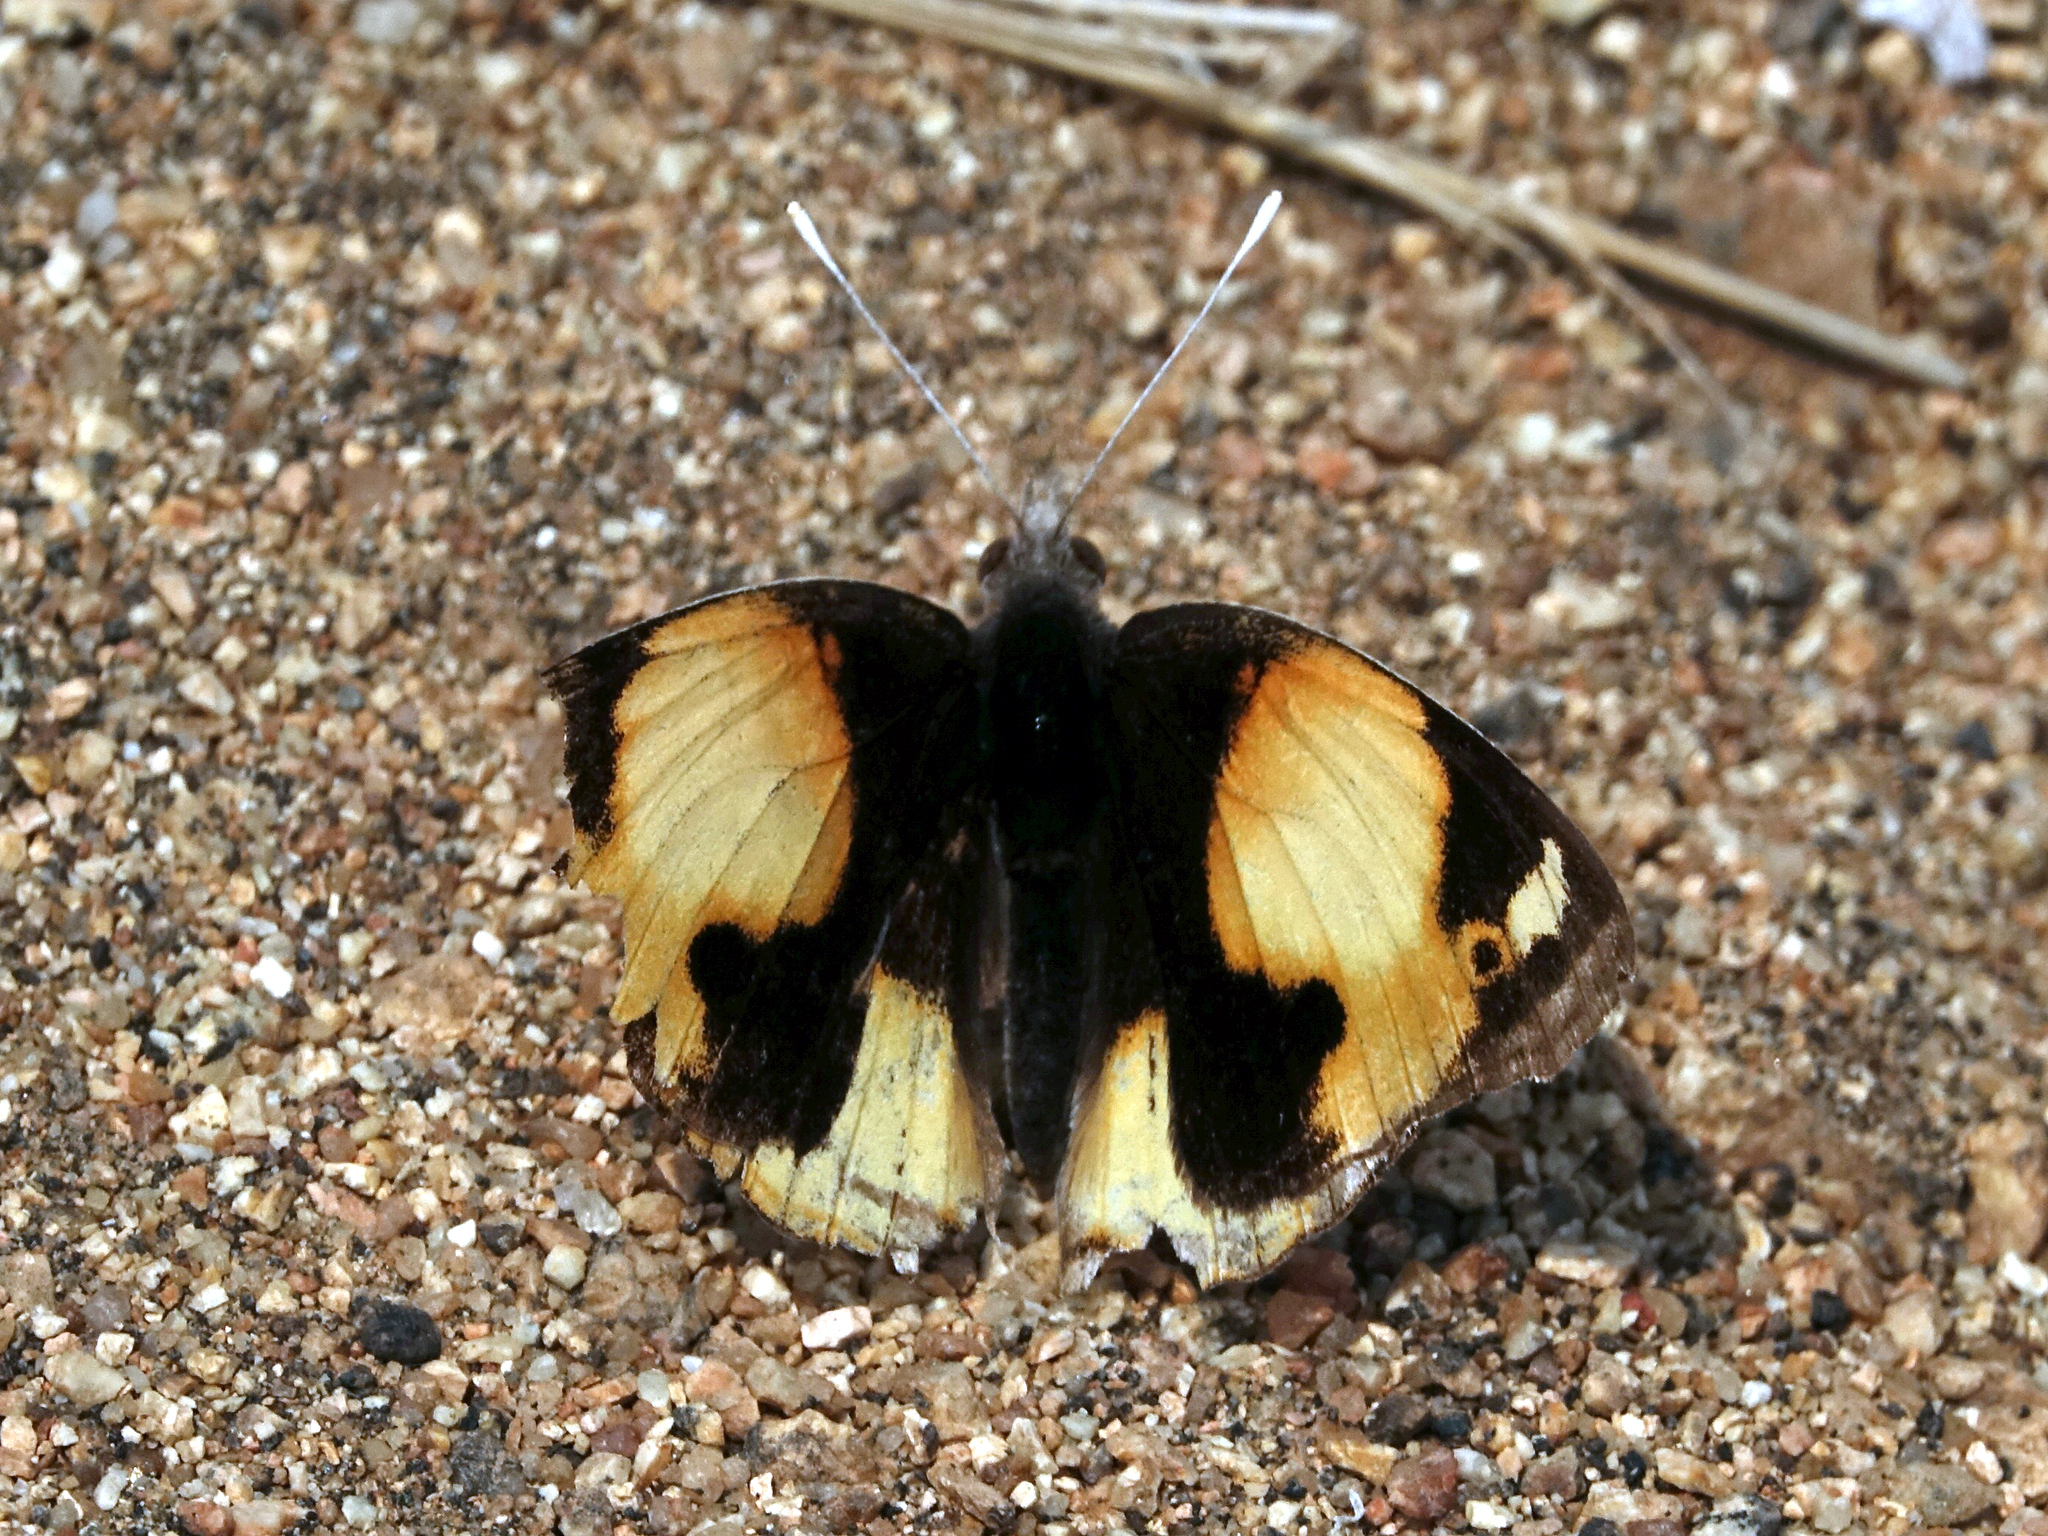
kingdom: Animalia
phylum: Arthropoda
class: Insecta
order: Lepidoptera
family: Nymphalidae
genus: Junonia
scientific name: Junonia hierta
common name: Yellow pansy
